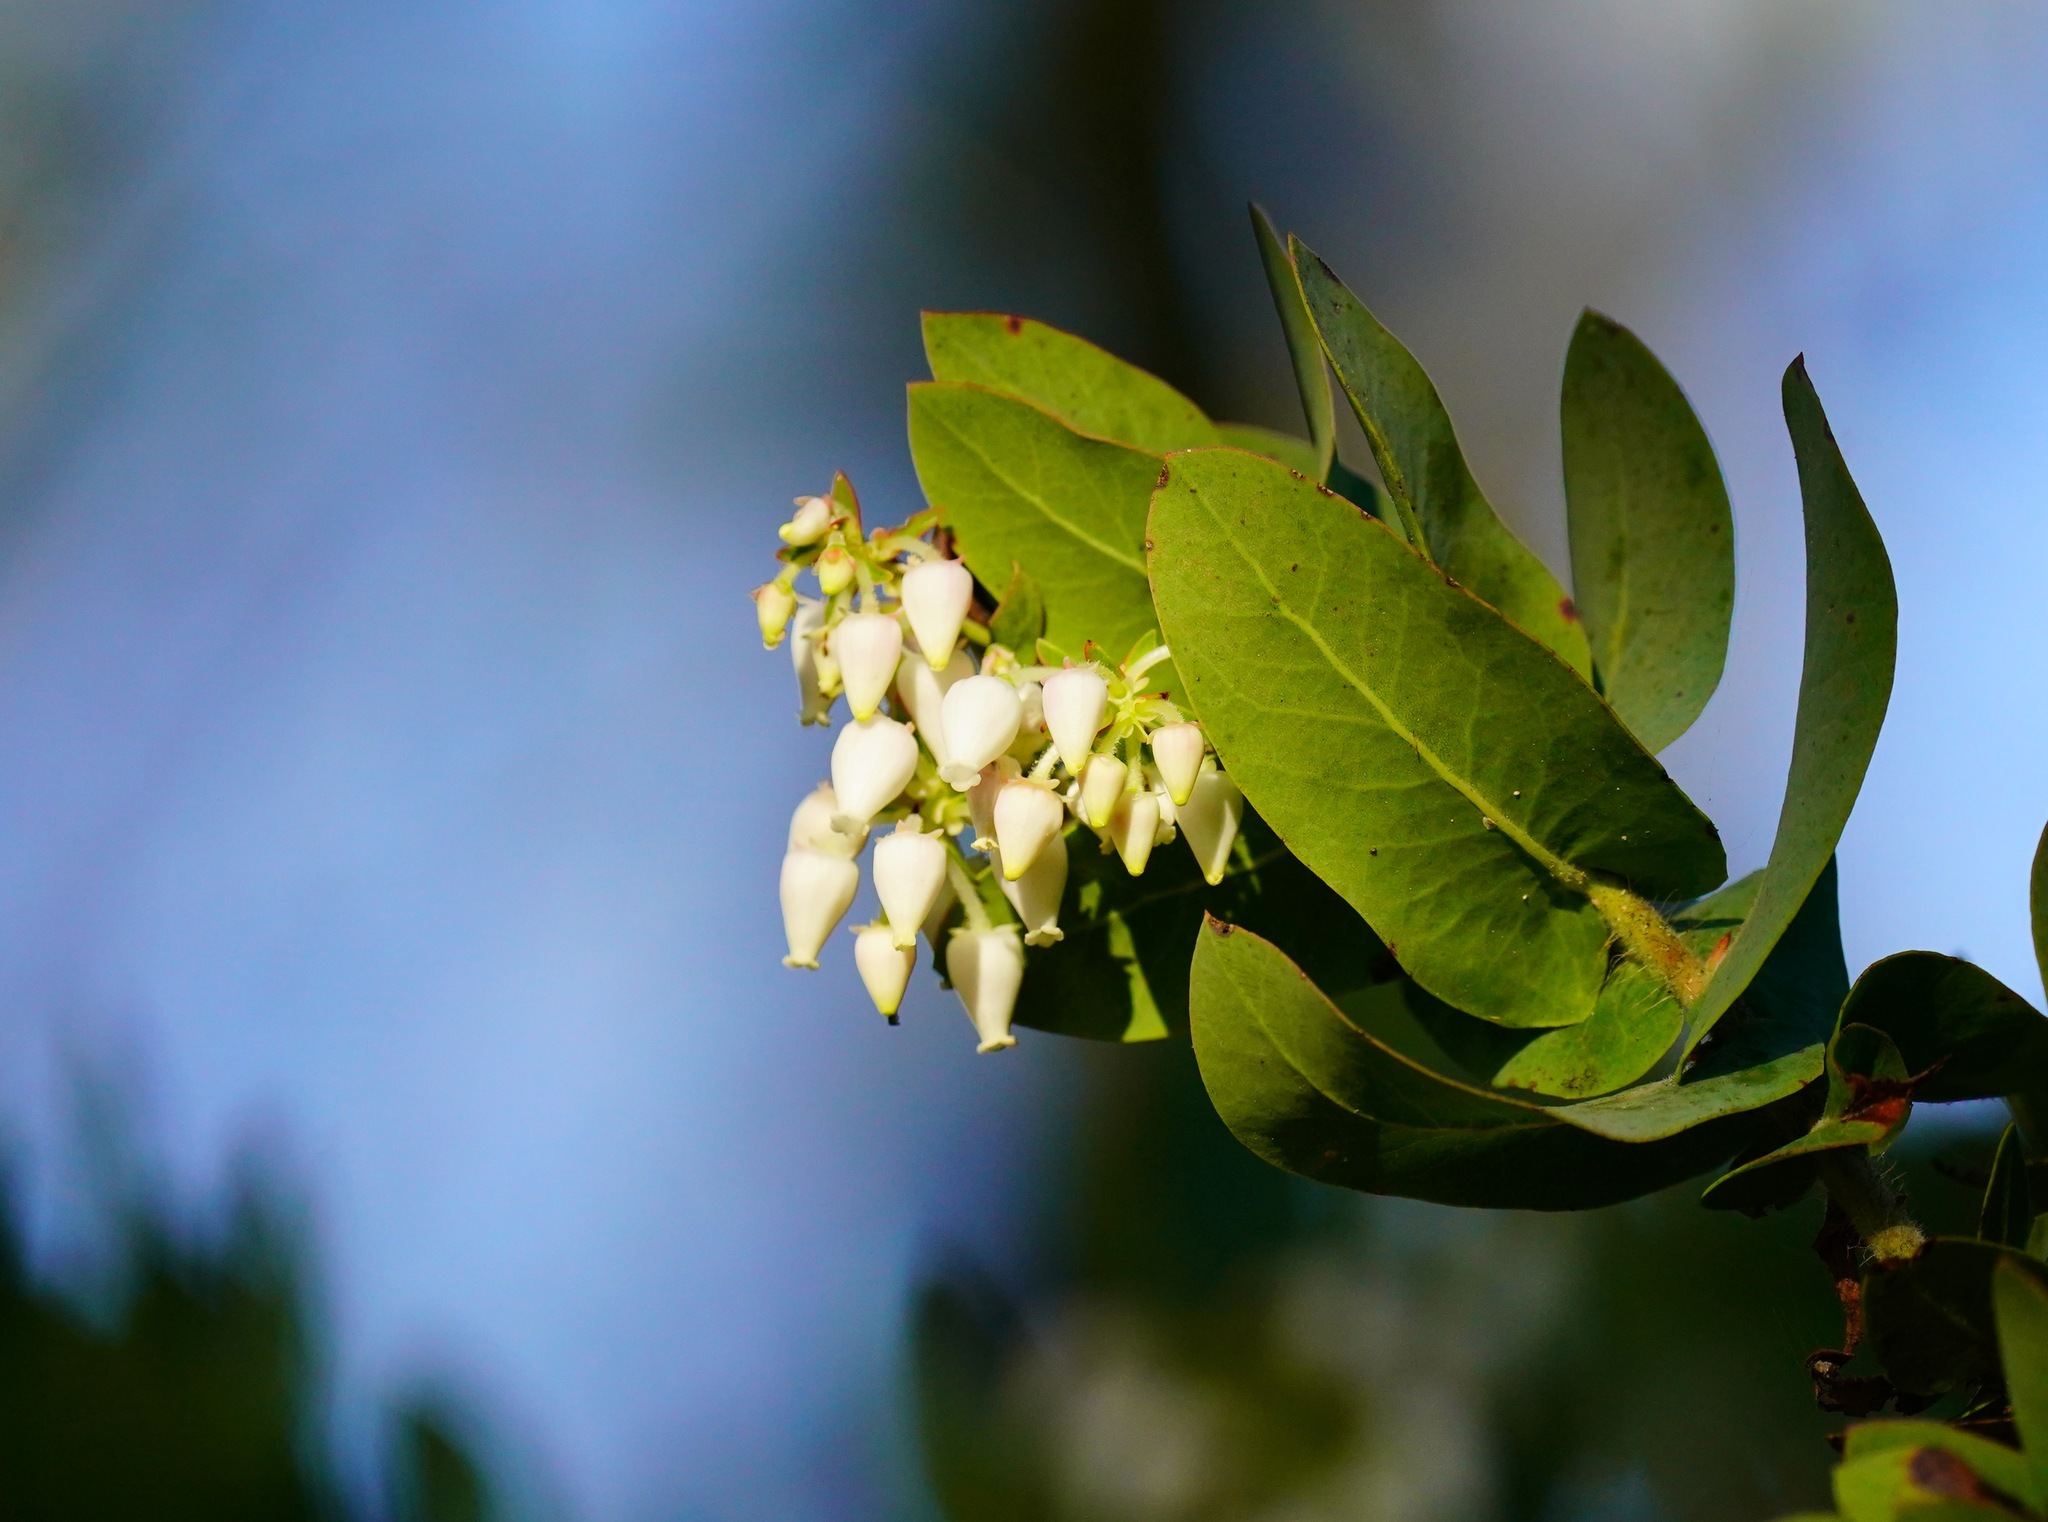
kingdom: Plantae
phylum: Tracheophyta
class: Magnoliopsida
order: Ericales
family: Ericaceae
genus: Arctostaphylos
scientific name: Arctostaphylos pallida
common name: Pallid manzanita
